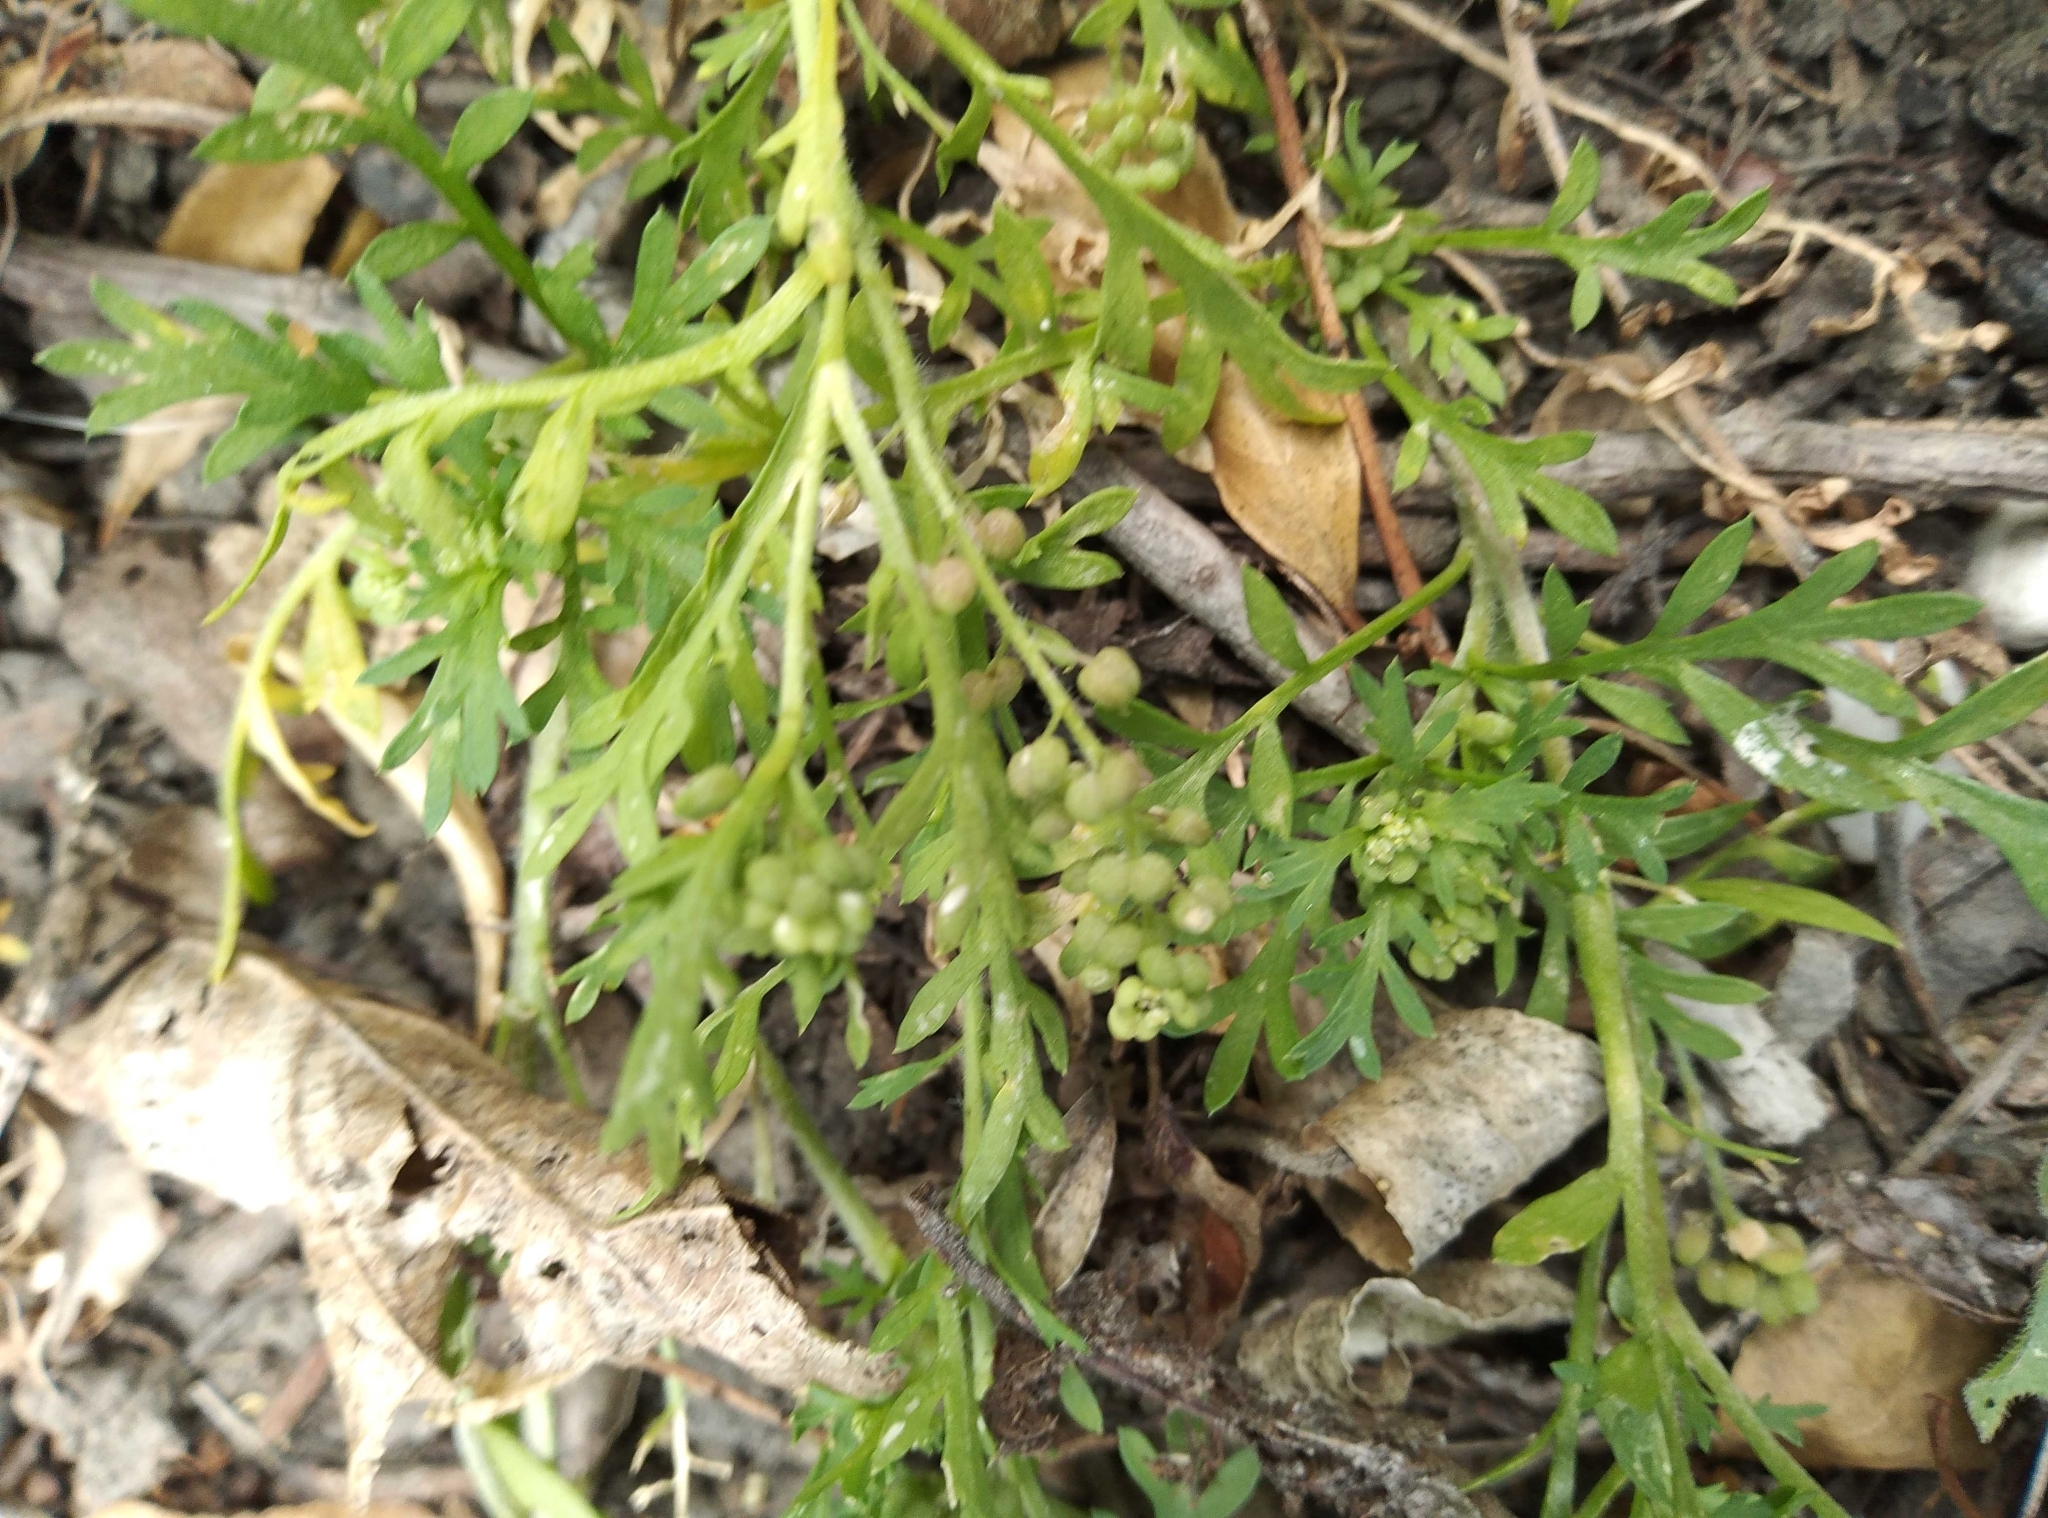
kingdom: Plantae
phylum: Tracheophyta
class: Magnoliopsida
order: Brassicales
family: Brassicaceae
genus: Lepidium
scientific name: Lepidium didymum
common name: Lesser swinecress
